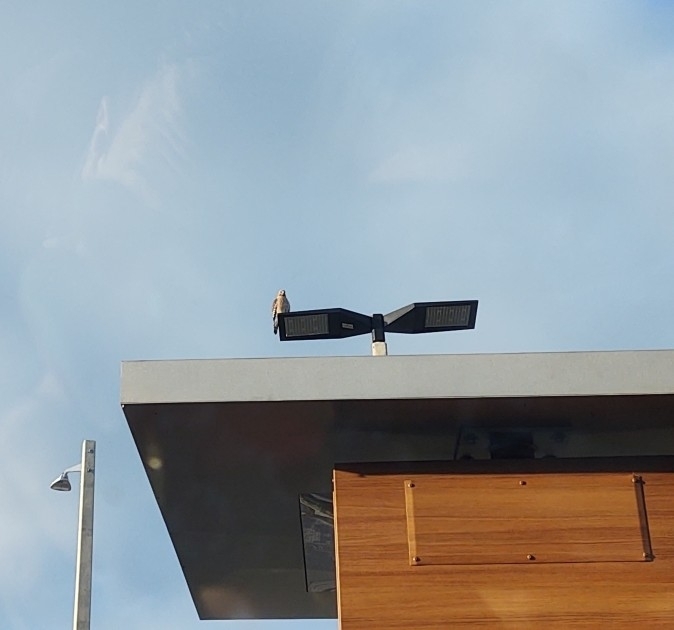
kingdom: Animalia
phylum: Chordata
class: Aves
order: Accipitriformes
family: Accipitridae
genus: Buteo
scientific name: Buteo lineatus
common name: Red-shouldered hawk
